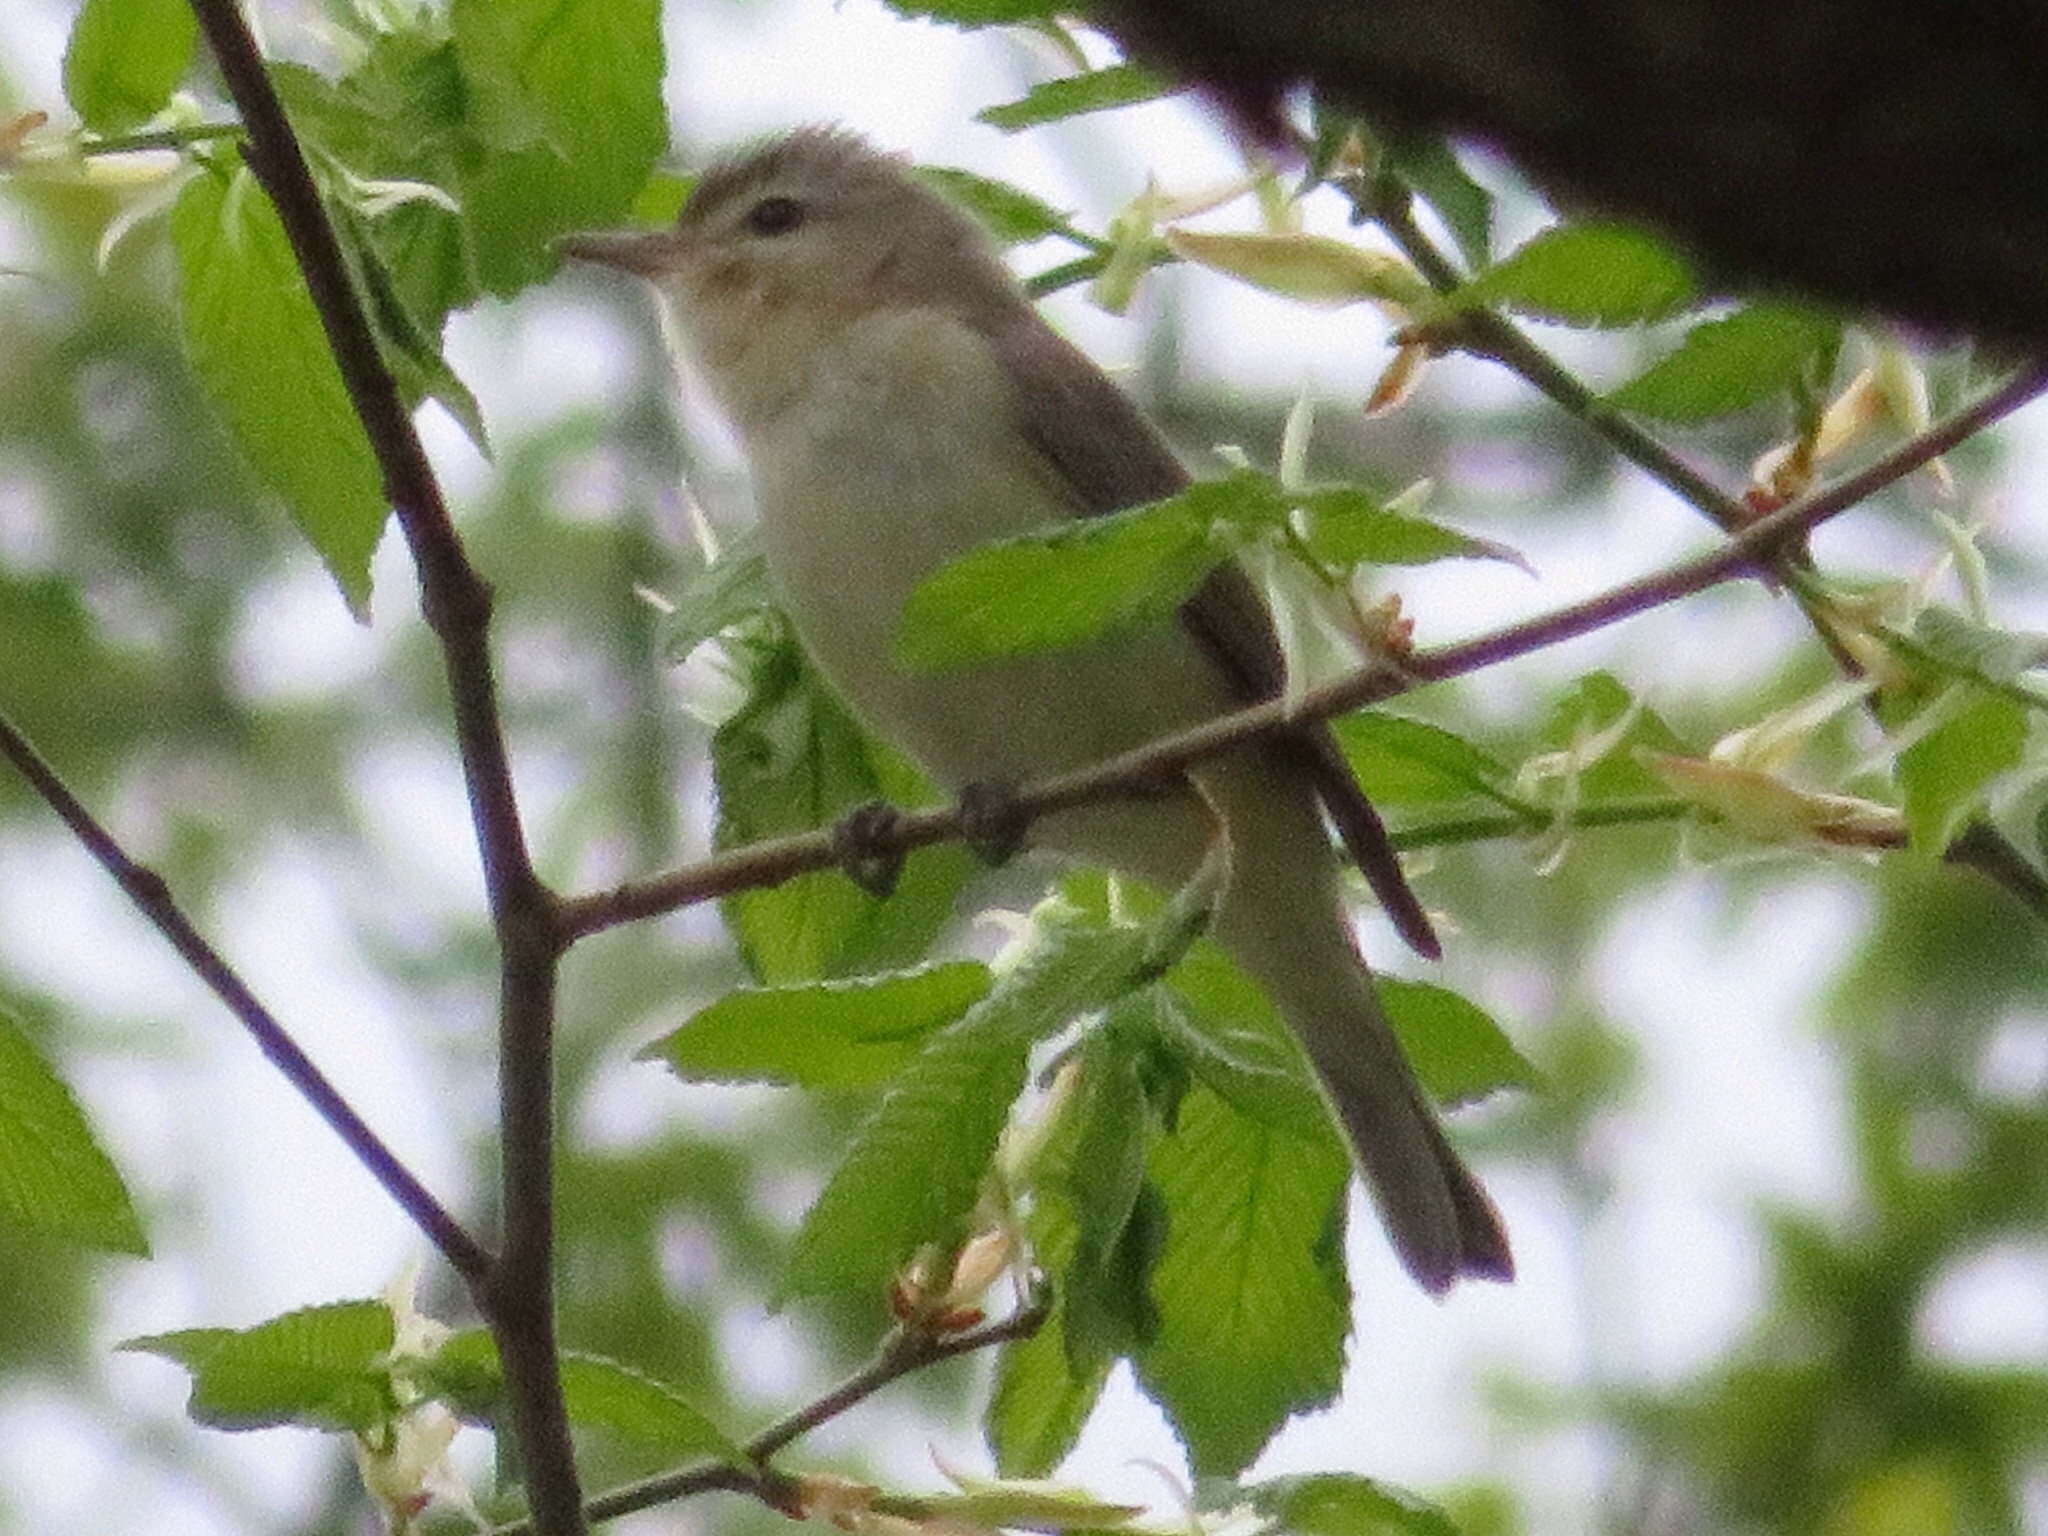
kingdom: Animalia
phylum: Chordata
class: Aves
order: Passeriformes
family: Vireonidae
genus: Vireo
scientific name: Vireo gilvus
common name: Warbling vireo
